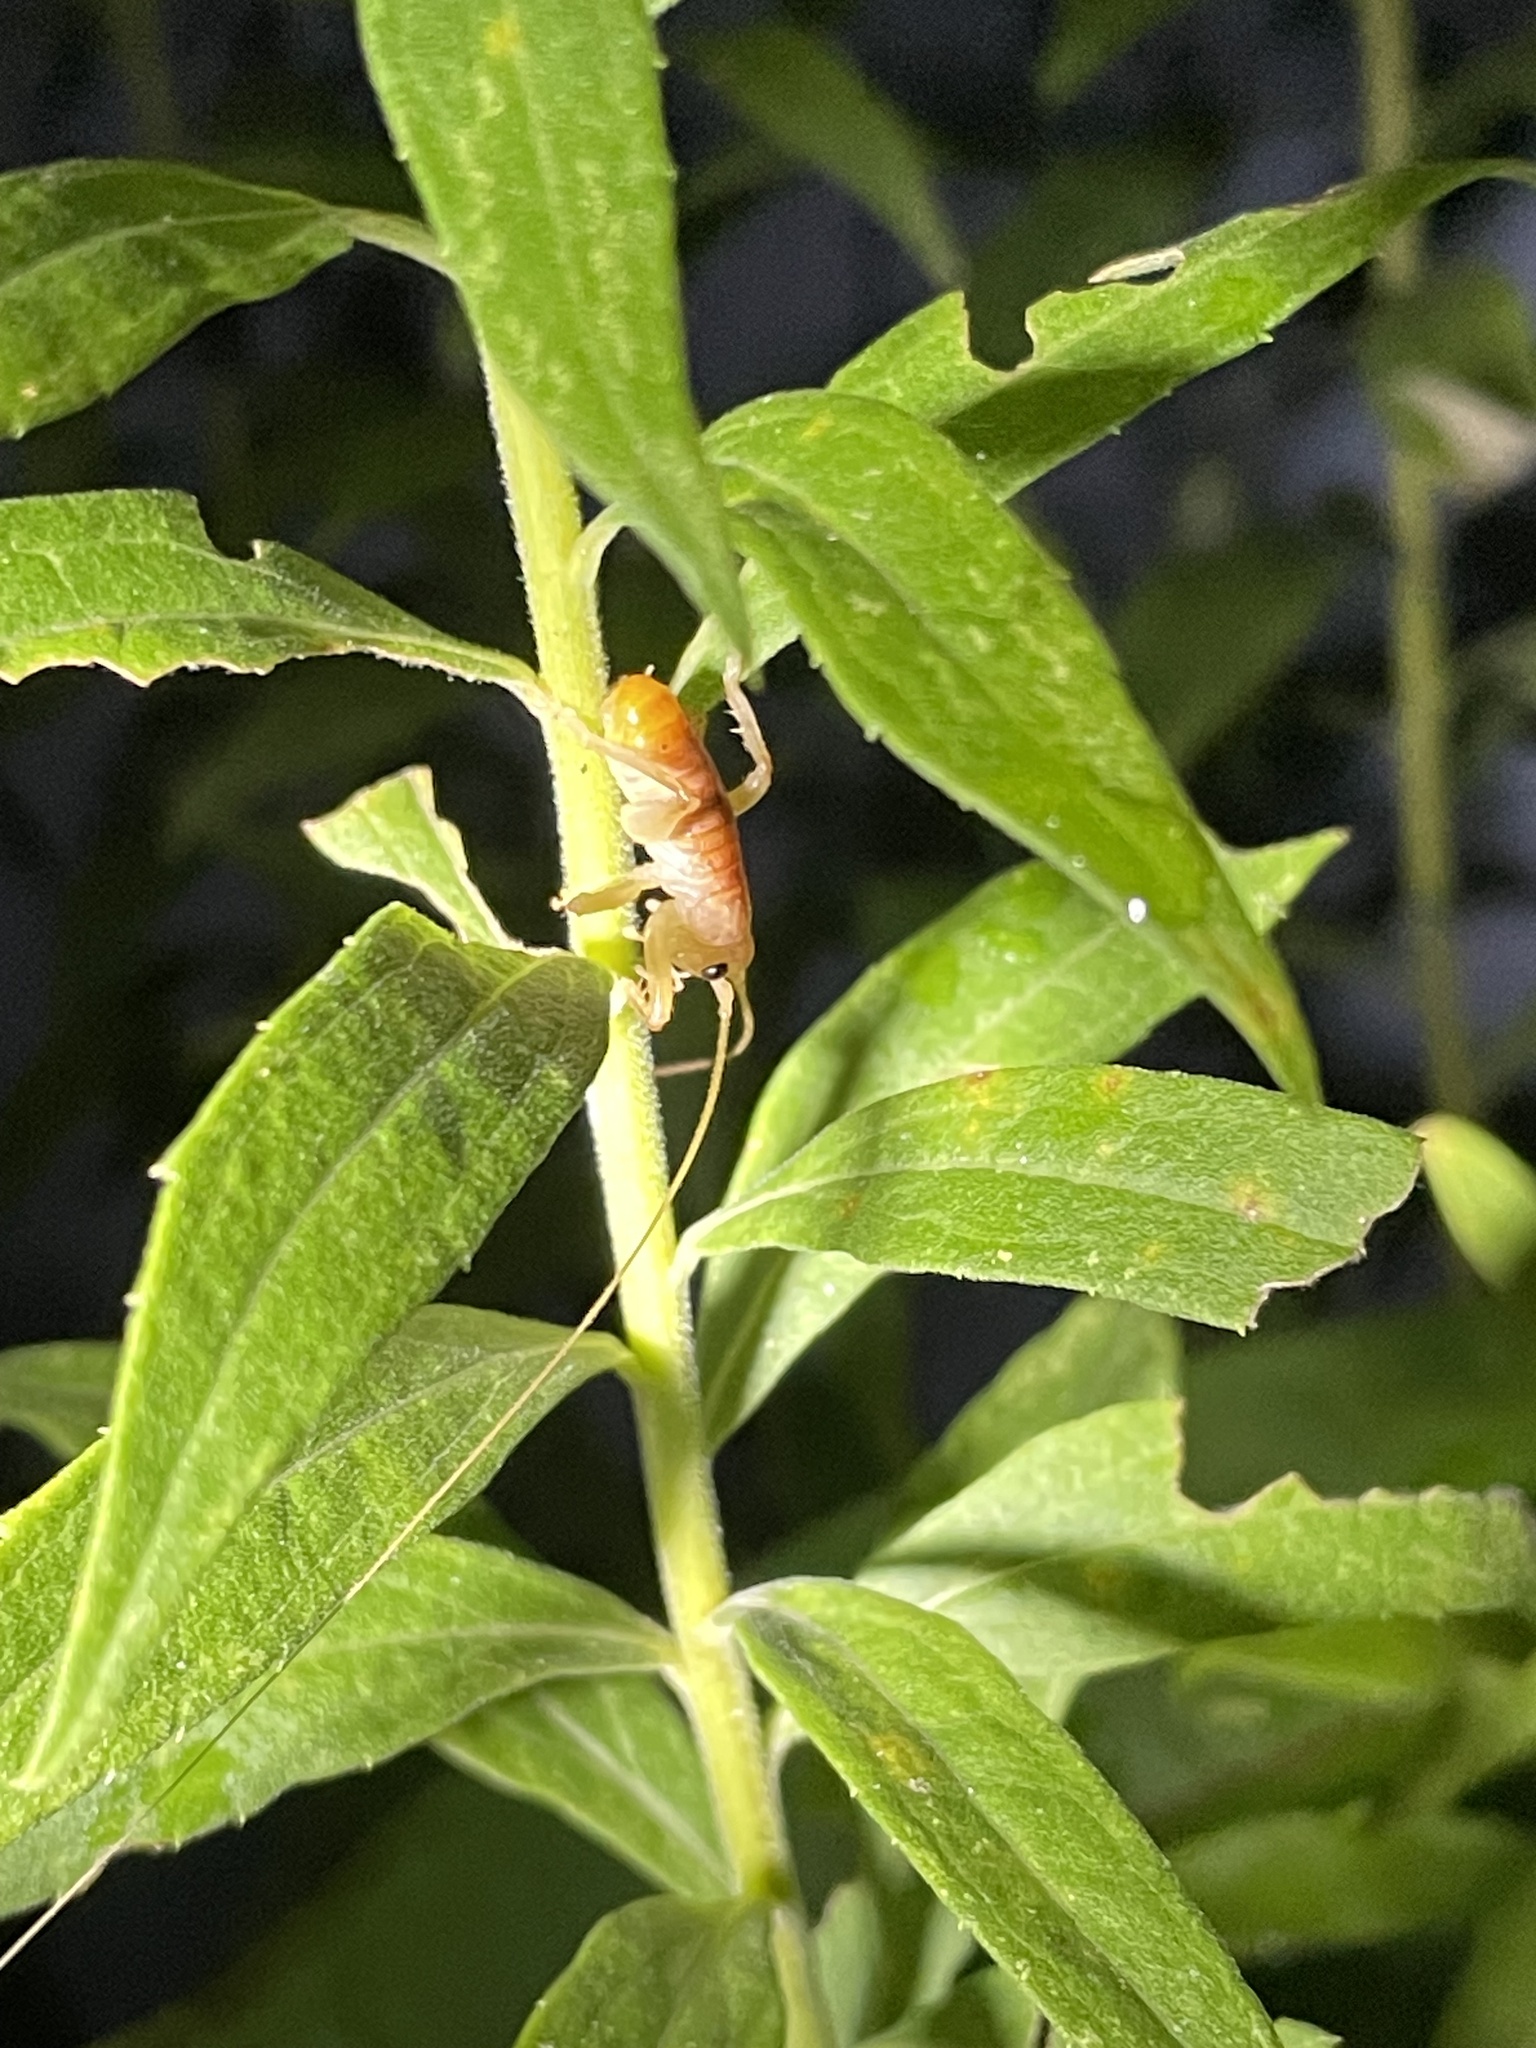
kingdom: Animalia
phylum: Arthropoda
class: Insecta
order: Orthoptera
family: Gryllacrididae
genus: Camptonotus
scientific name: Camptonotus carolinensis
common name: Carolina leaf-roller
